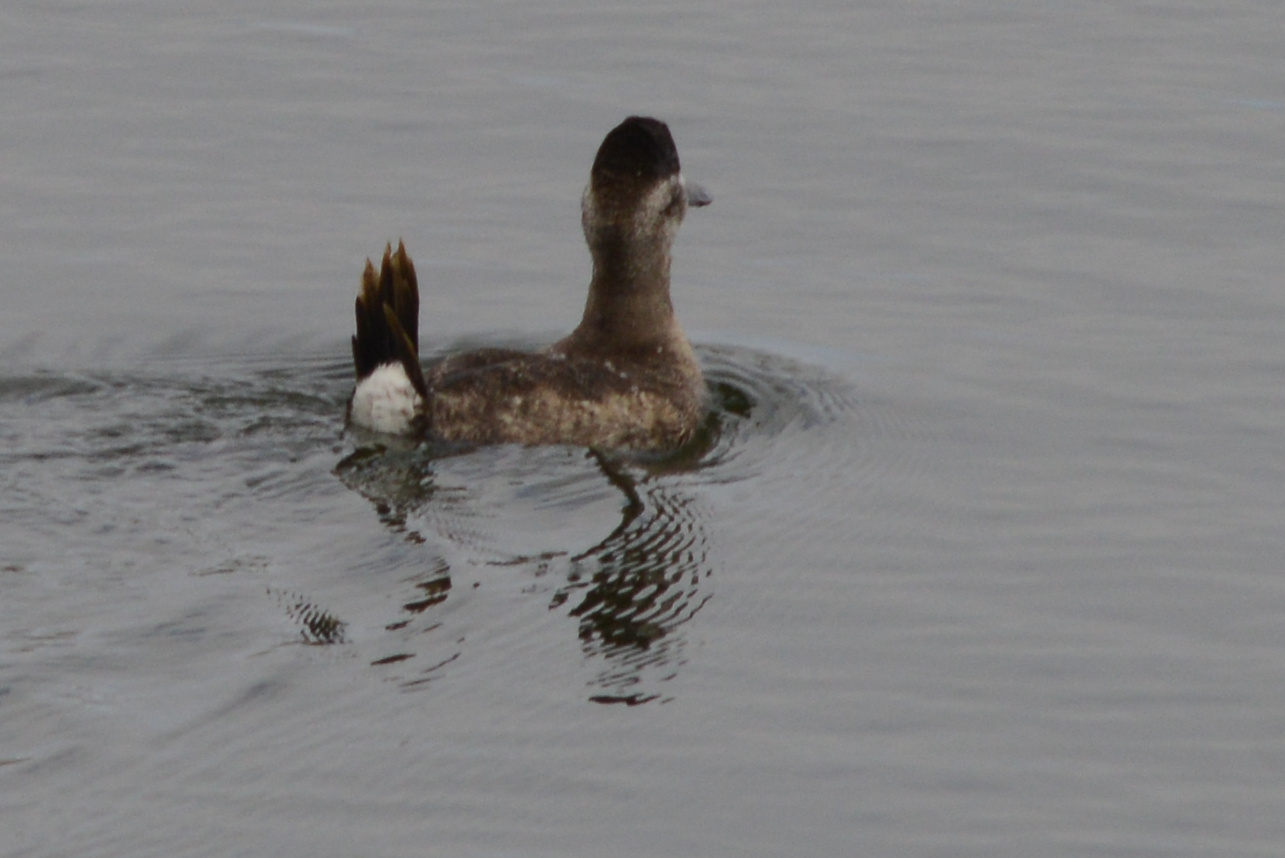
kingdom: Animalia
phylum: Chordata
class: Aves
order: Anseriformes
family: Anatidae
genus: Oxyura
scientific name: Oxyura jamaicensis
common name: Ruddy duck
